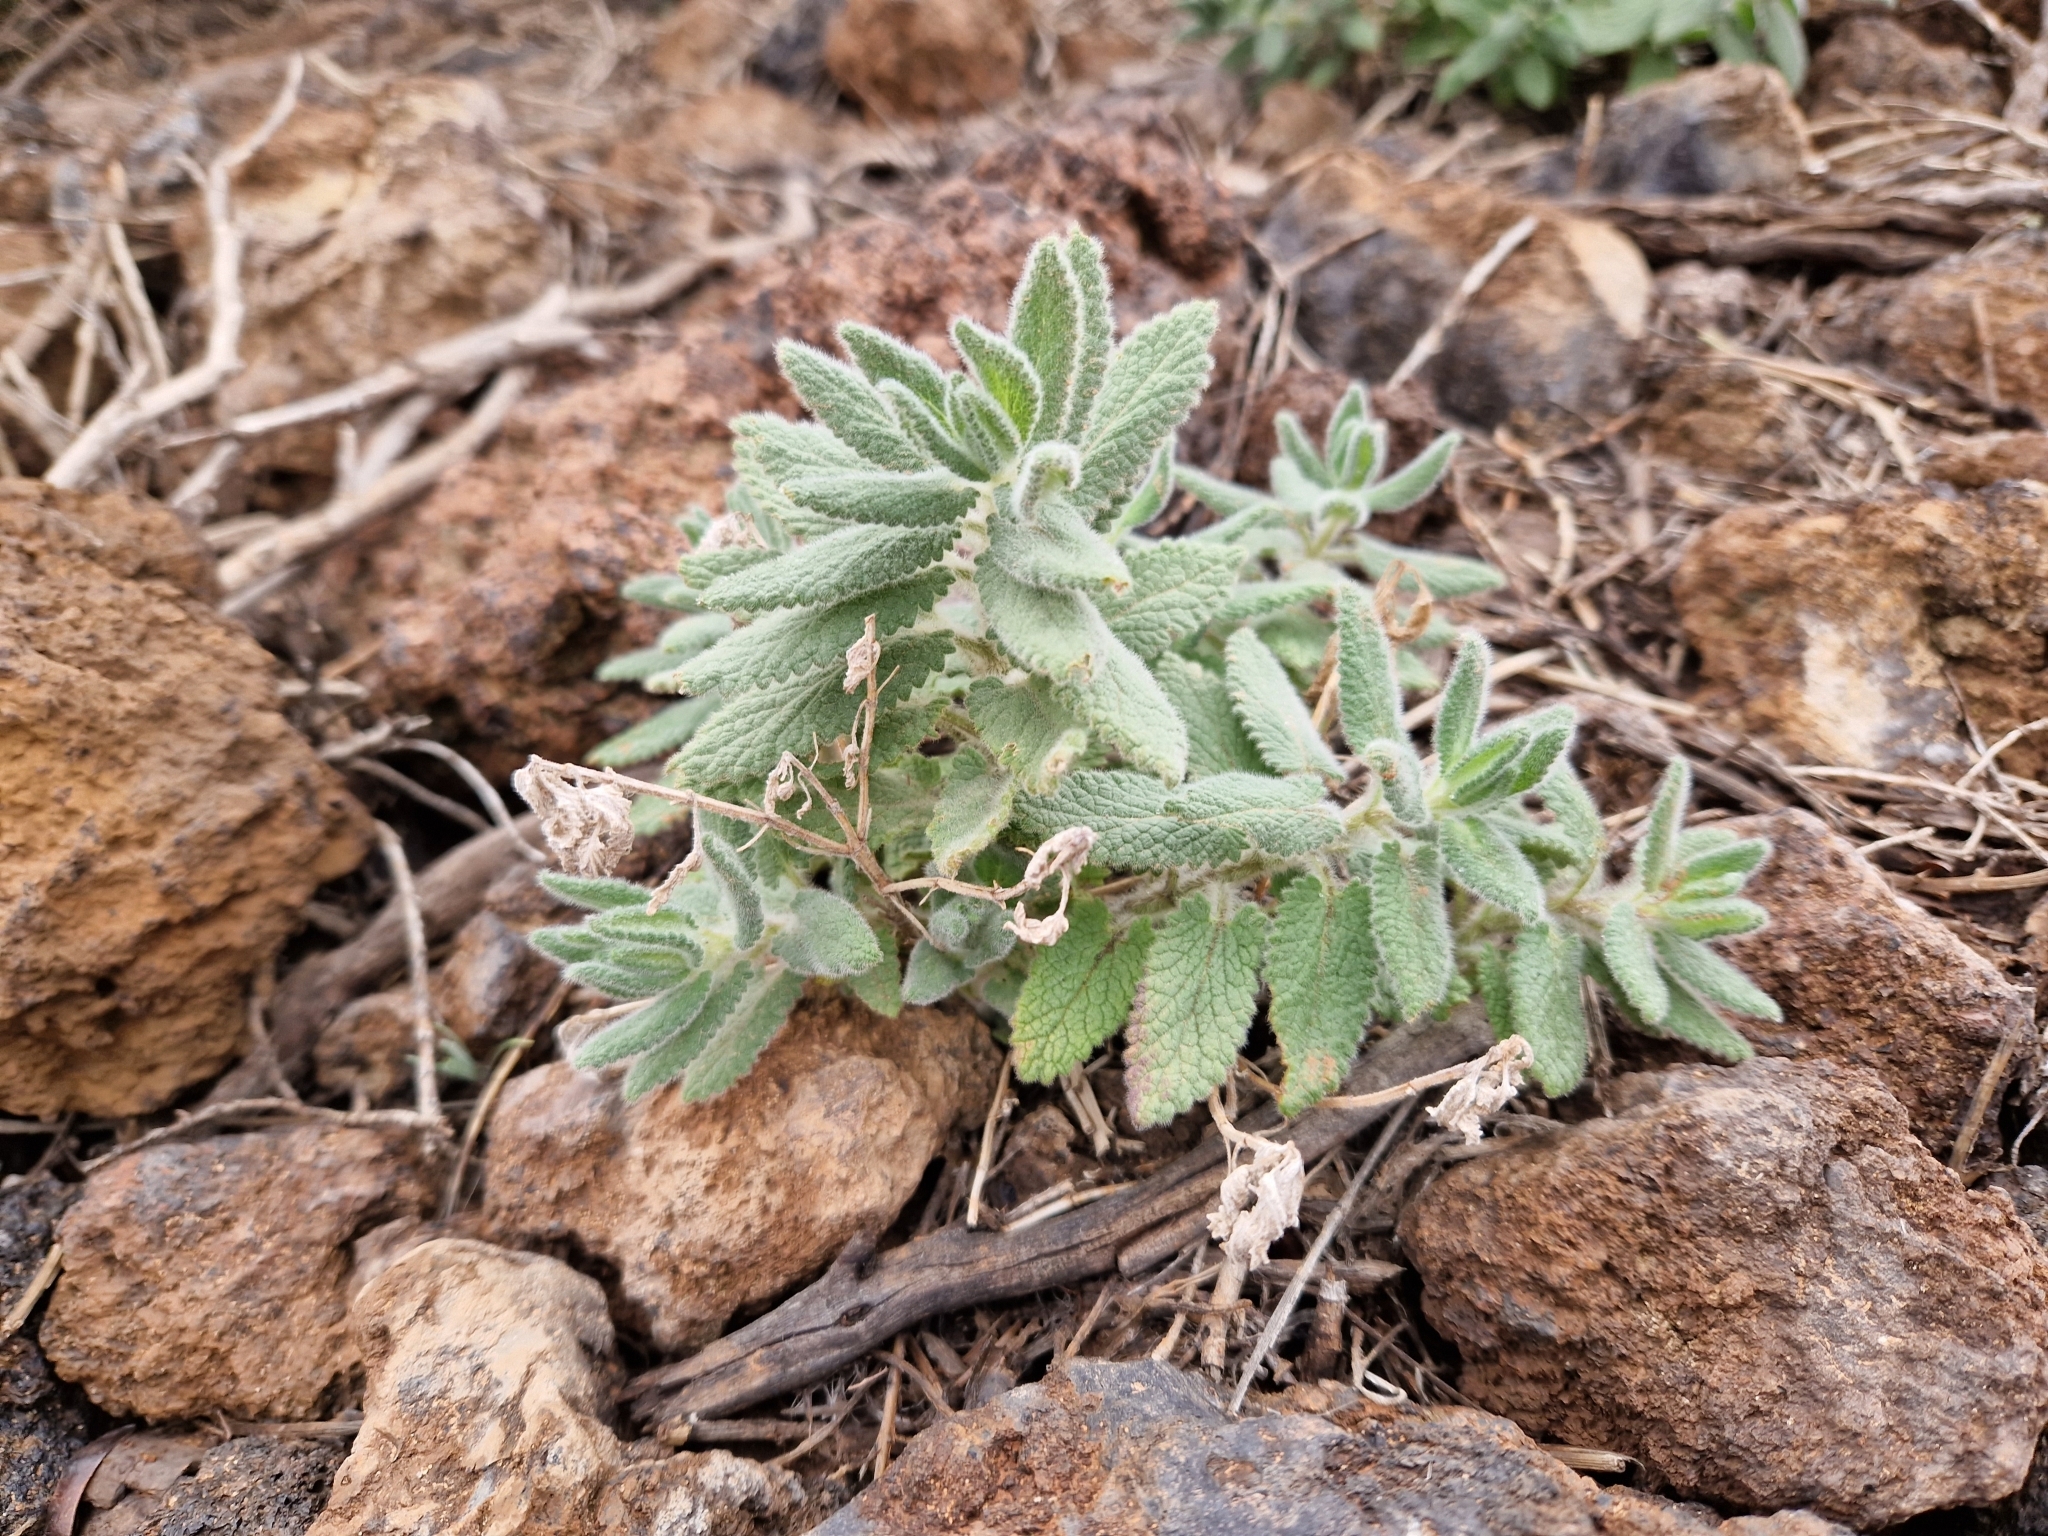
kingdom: Plantae
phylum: Tracheophyta
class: Magnoliopsida
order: Lamiales
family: Lamiaceae
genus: Nepeta
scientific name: Nepeta teydea
